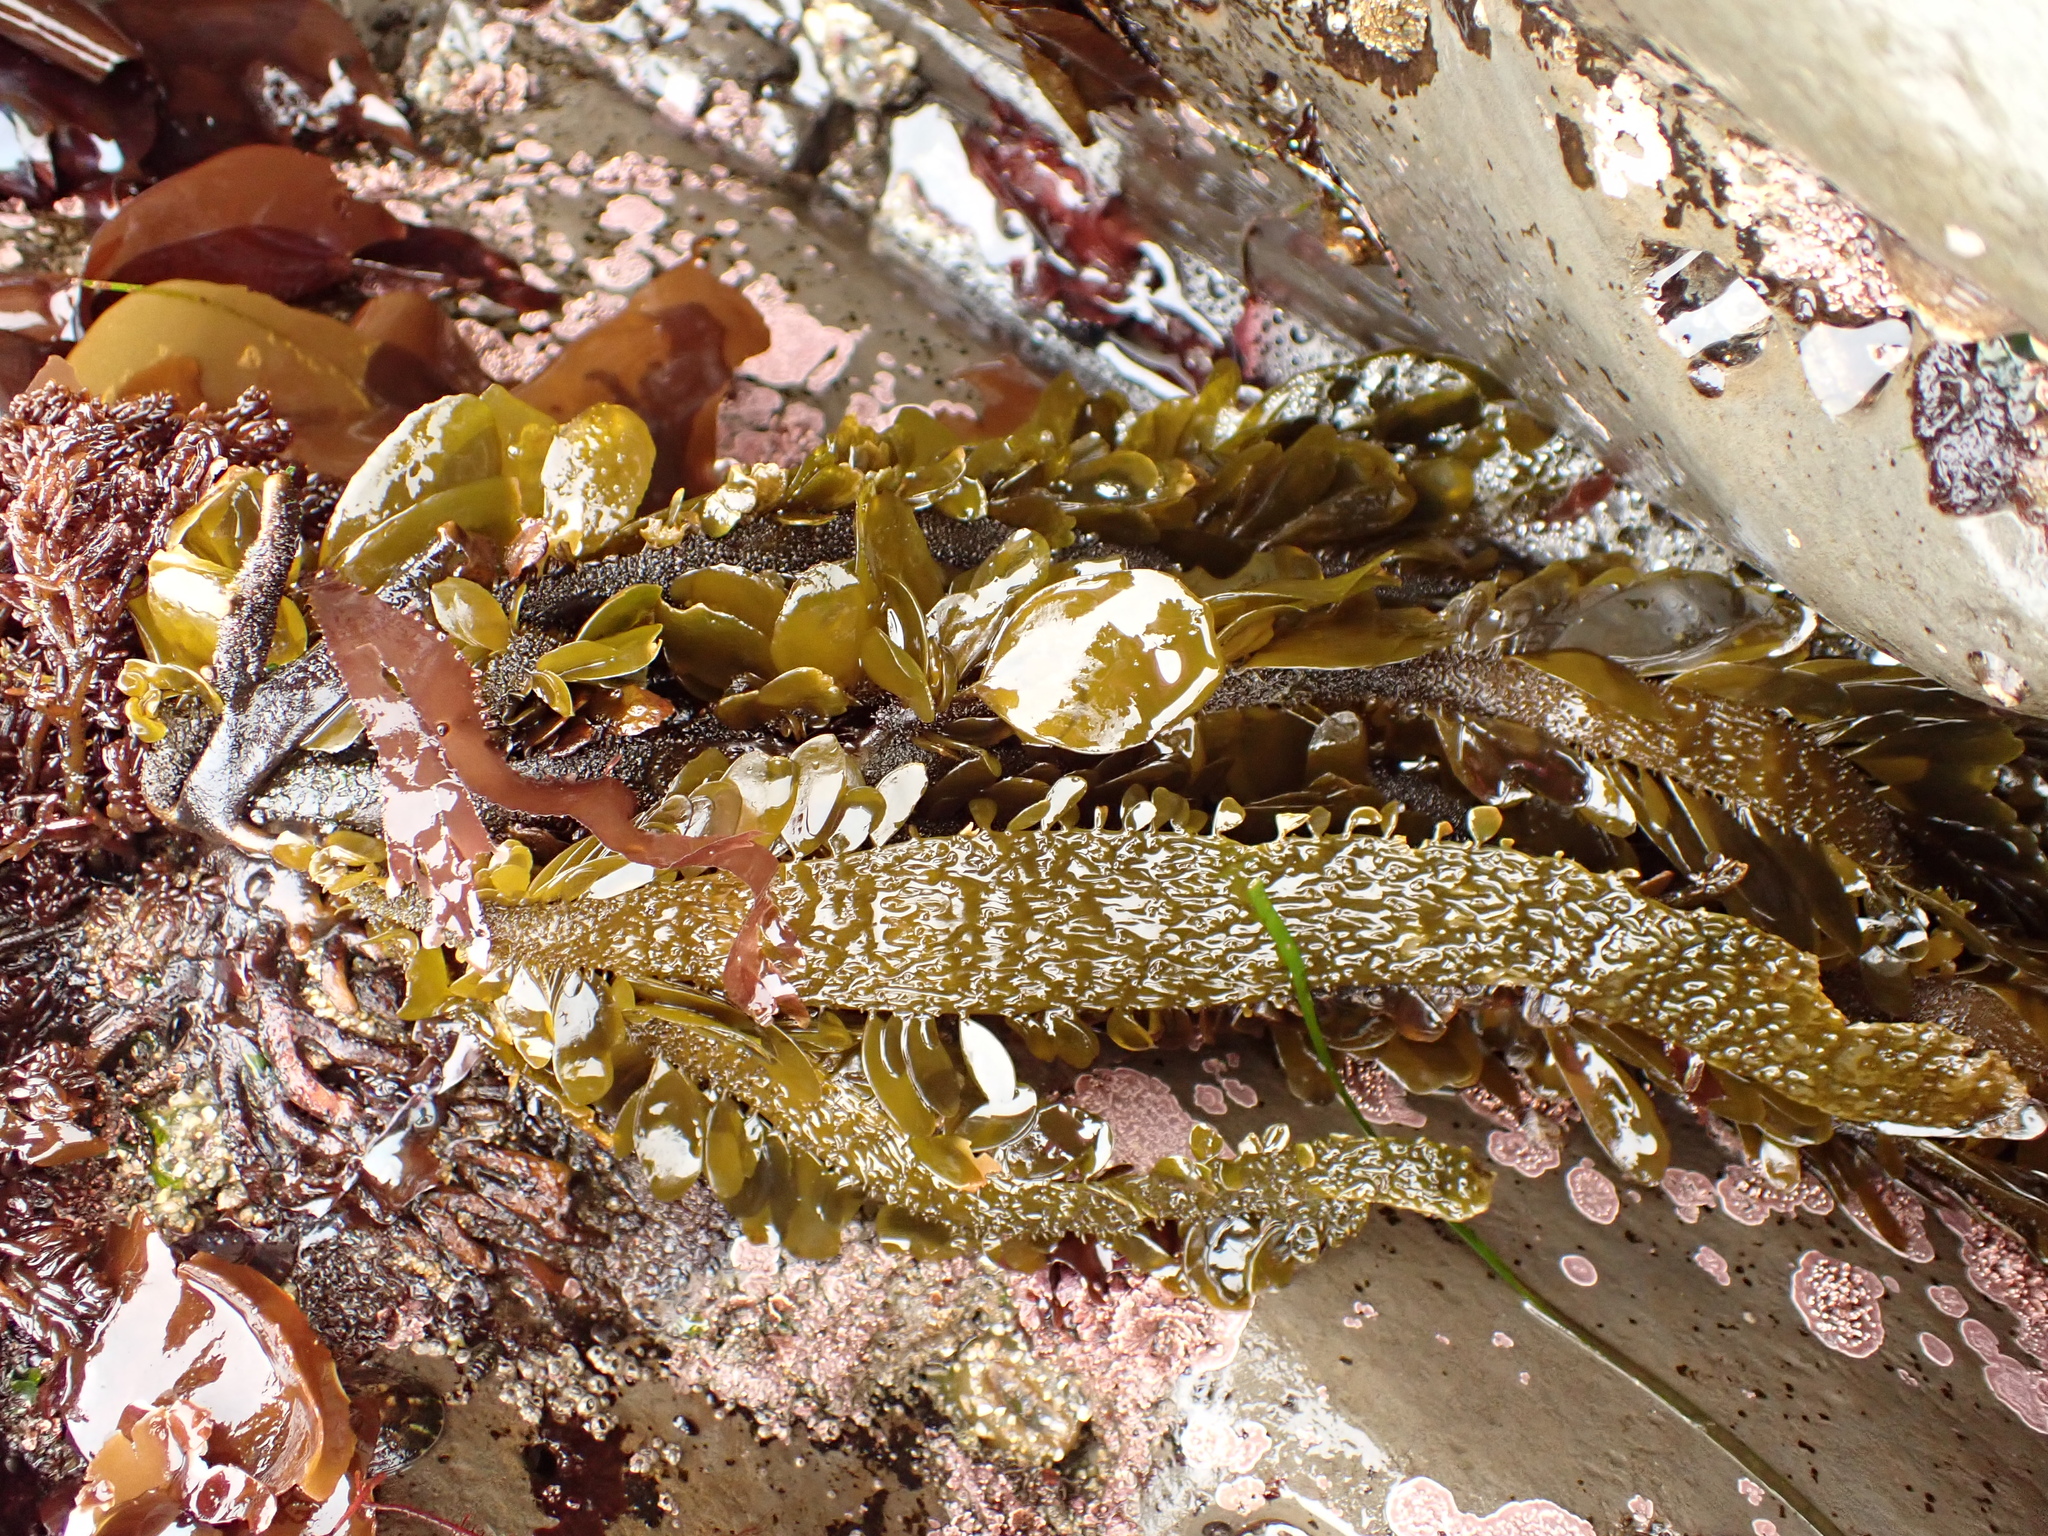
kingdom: Chromista
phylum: Ochrophyta
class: Phaeophyceae
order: Laminariales
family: Lessoniaceae
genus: Egregia
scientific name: Egregia menziesii
